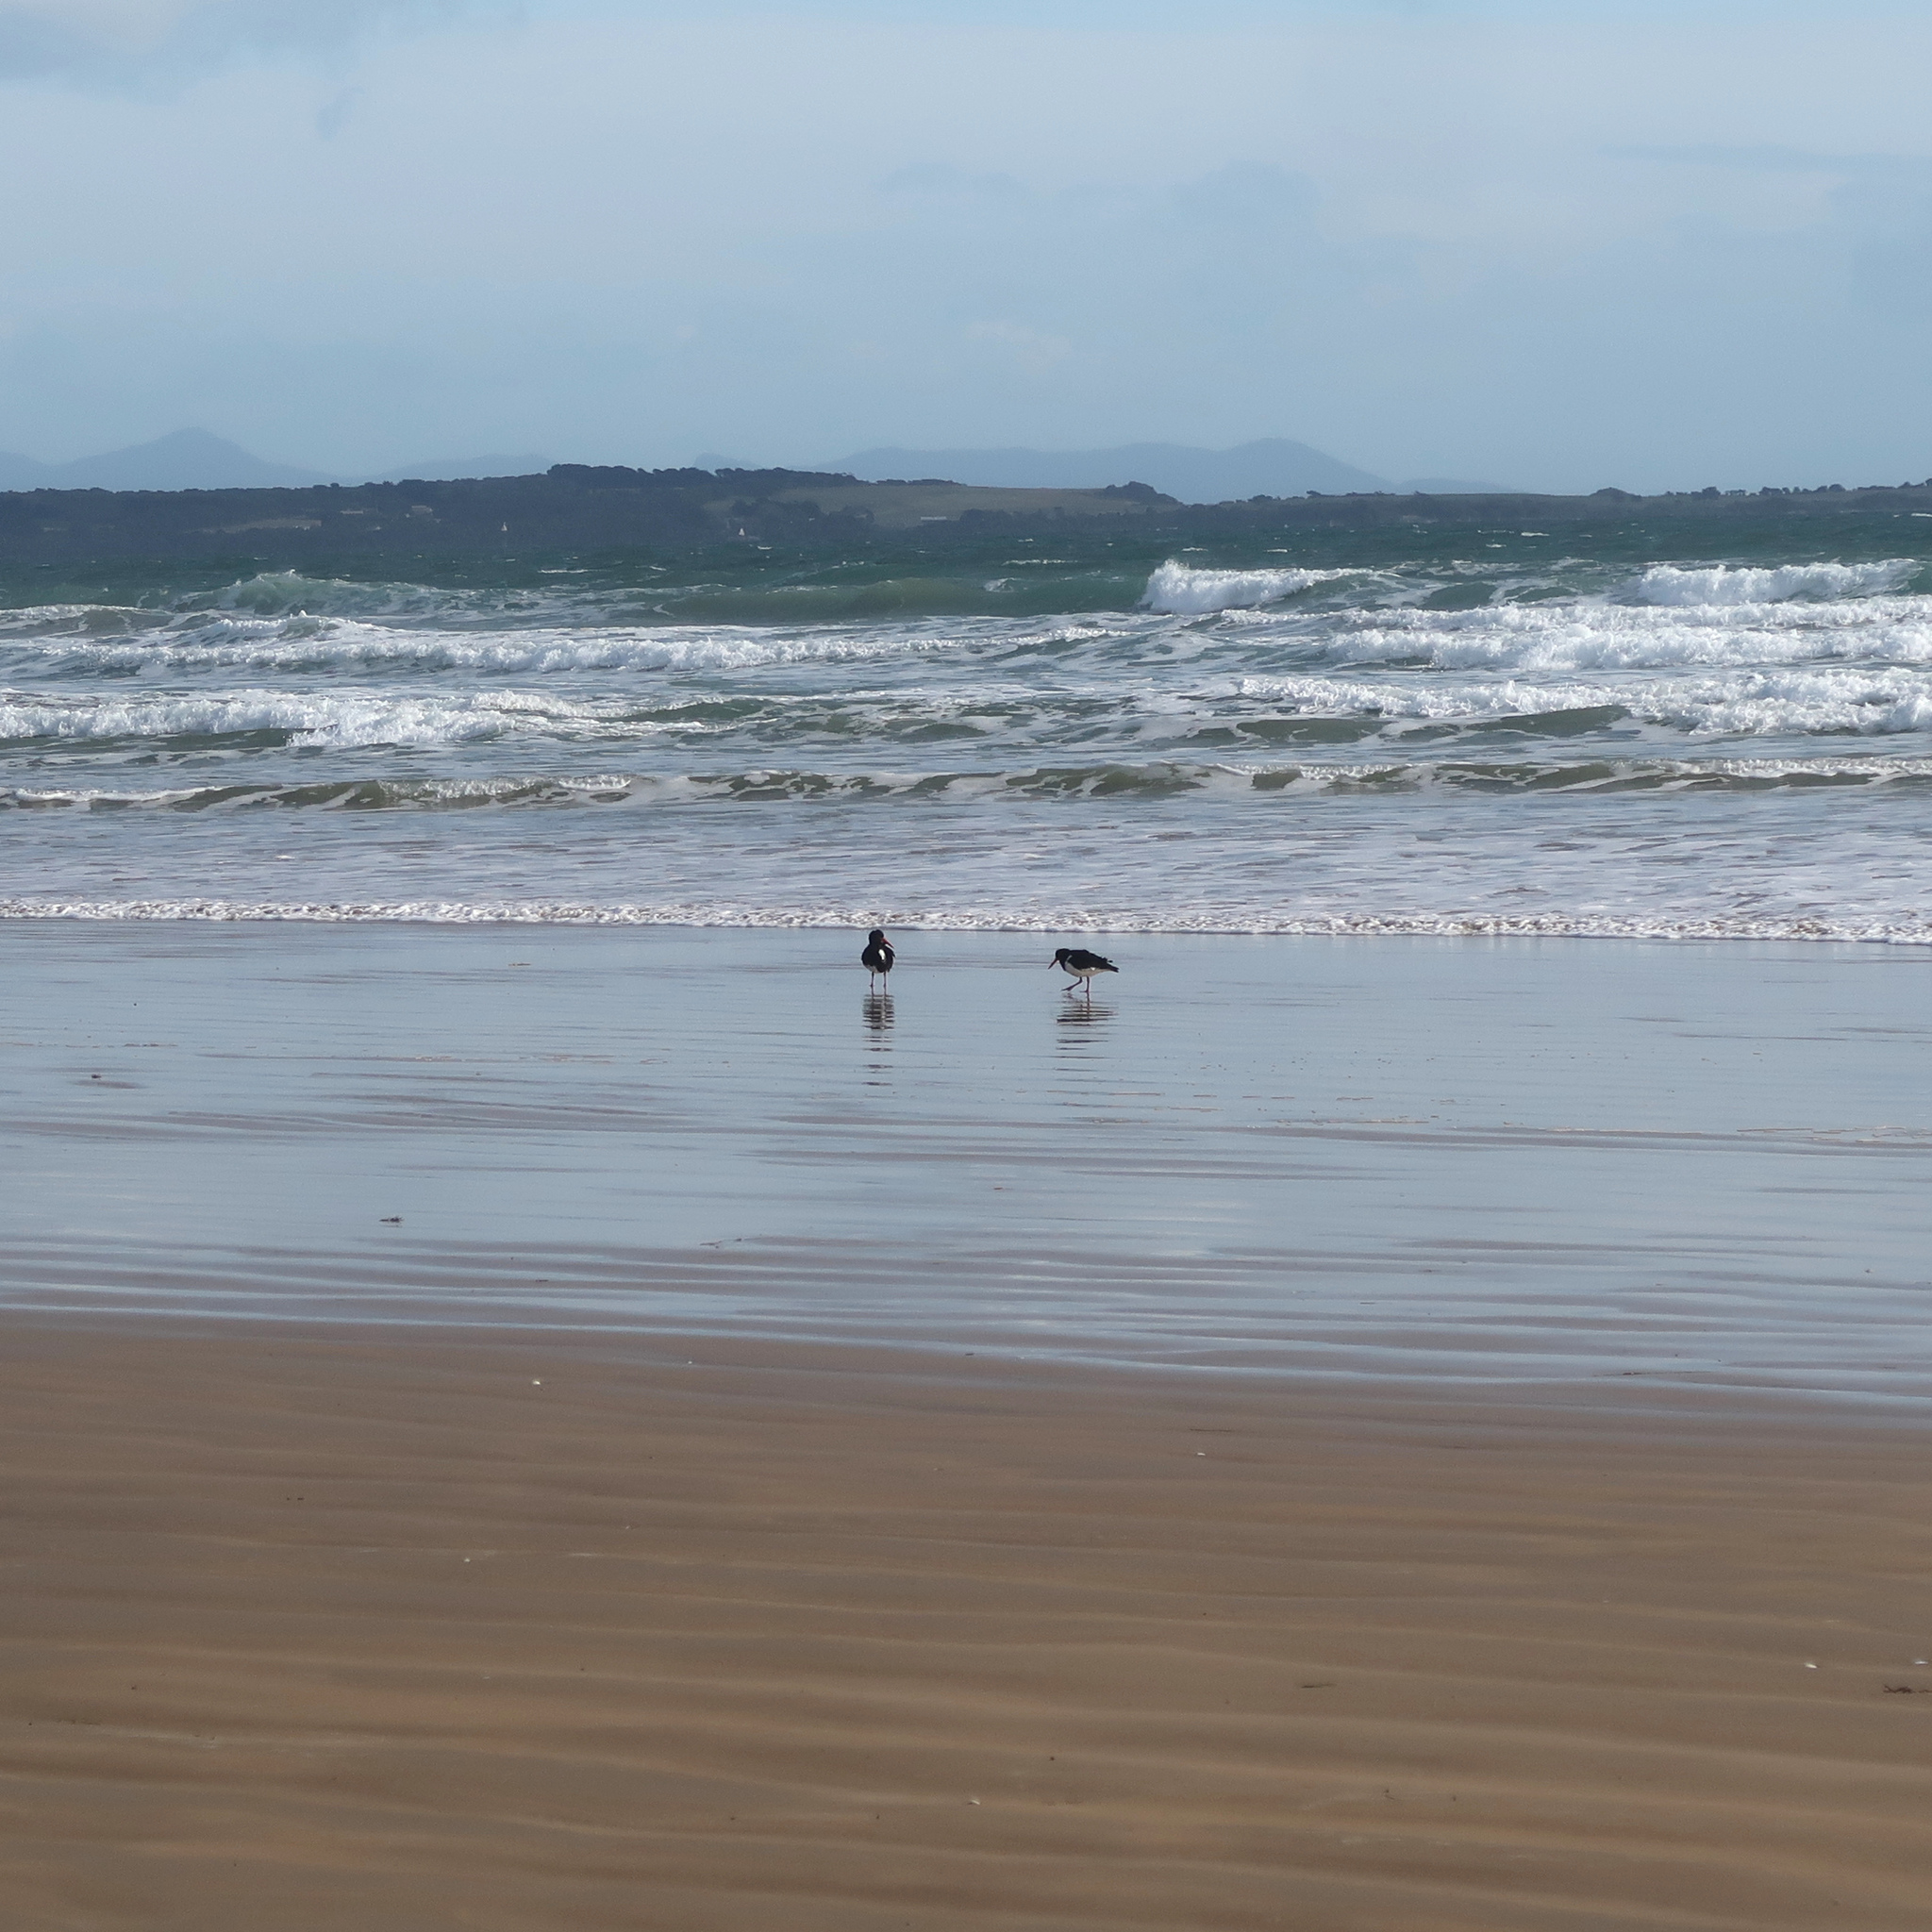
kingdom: Animalia
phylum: Chordata
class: Aves
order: Charadriiformes
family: Haematopodidae
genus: Haematopus
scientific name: Haematopus longirostris
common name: Pied oystercatcher
